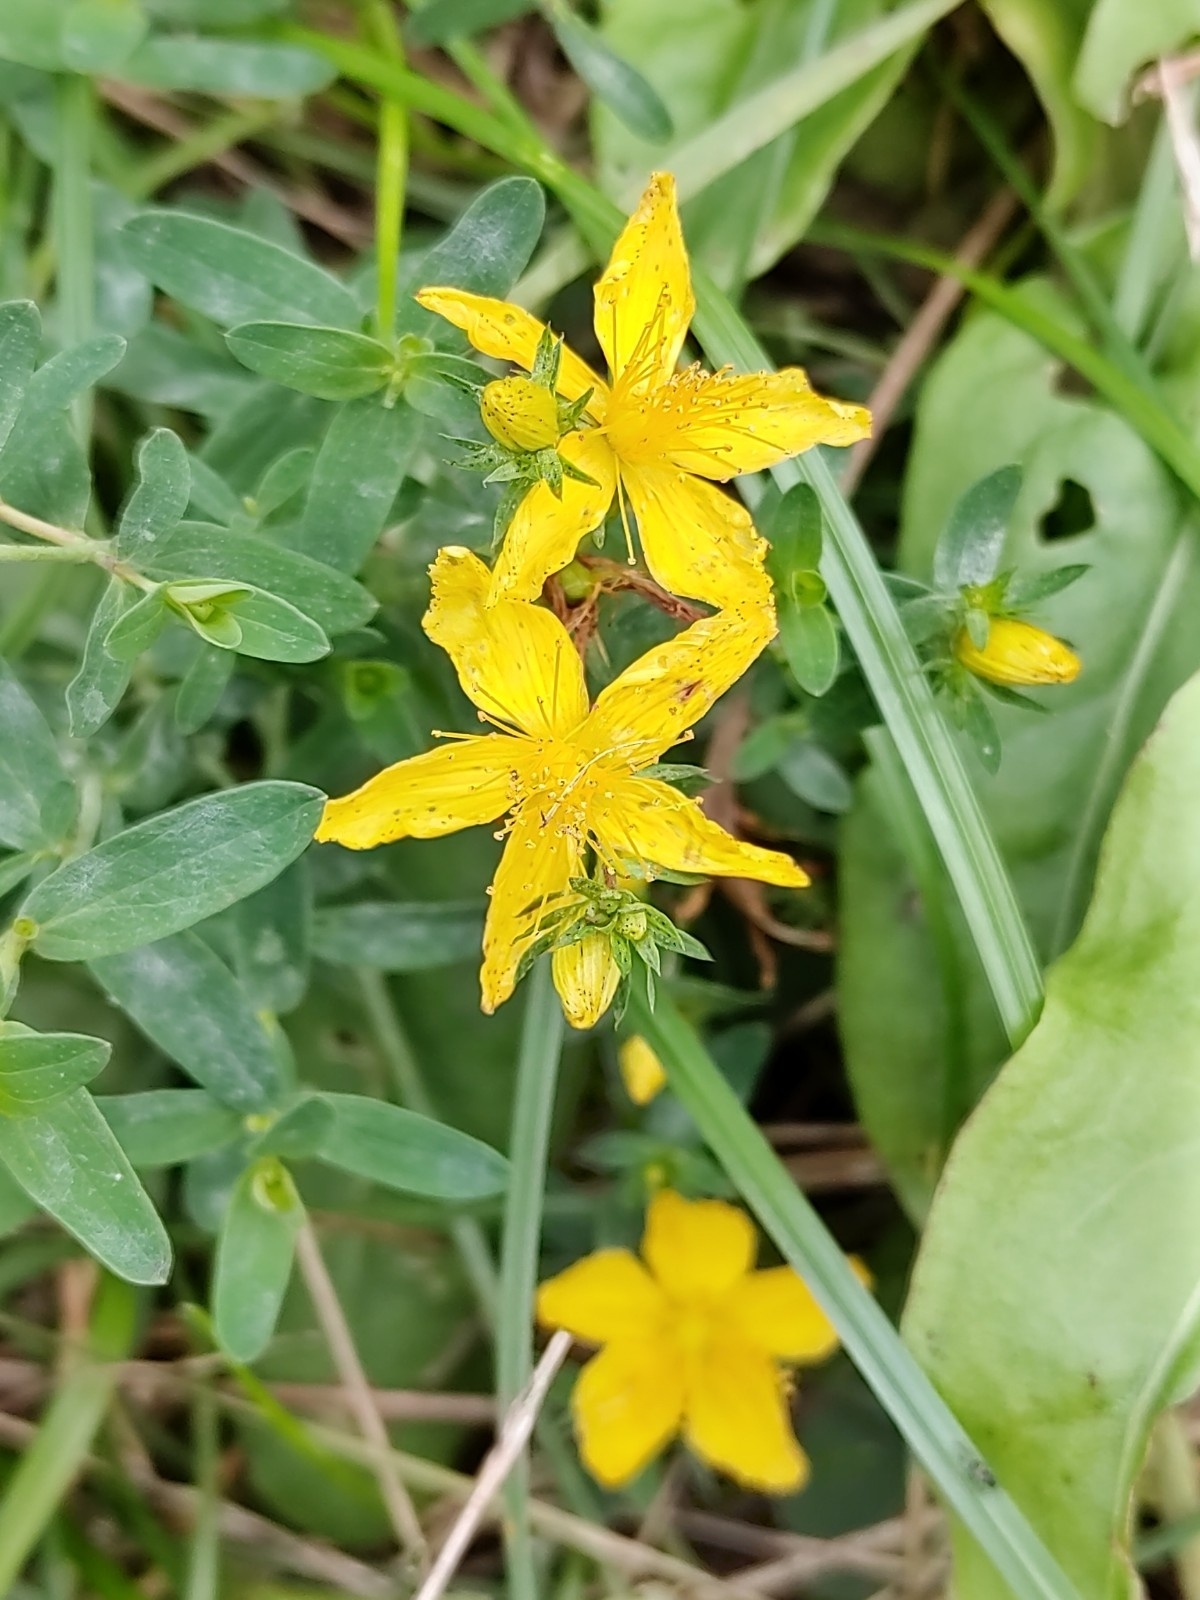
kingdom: Plantae
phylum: Tracheophyta
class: Magnoliopsida
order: Malpighiales
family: Hypericaceae
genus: Hypericum
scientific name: Hypericum perforatum
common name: Common st. johnswort
